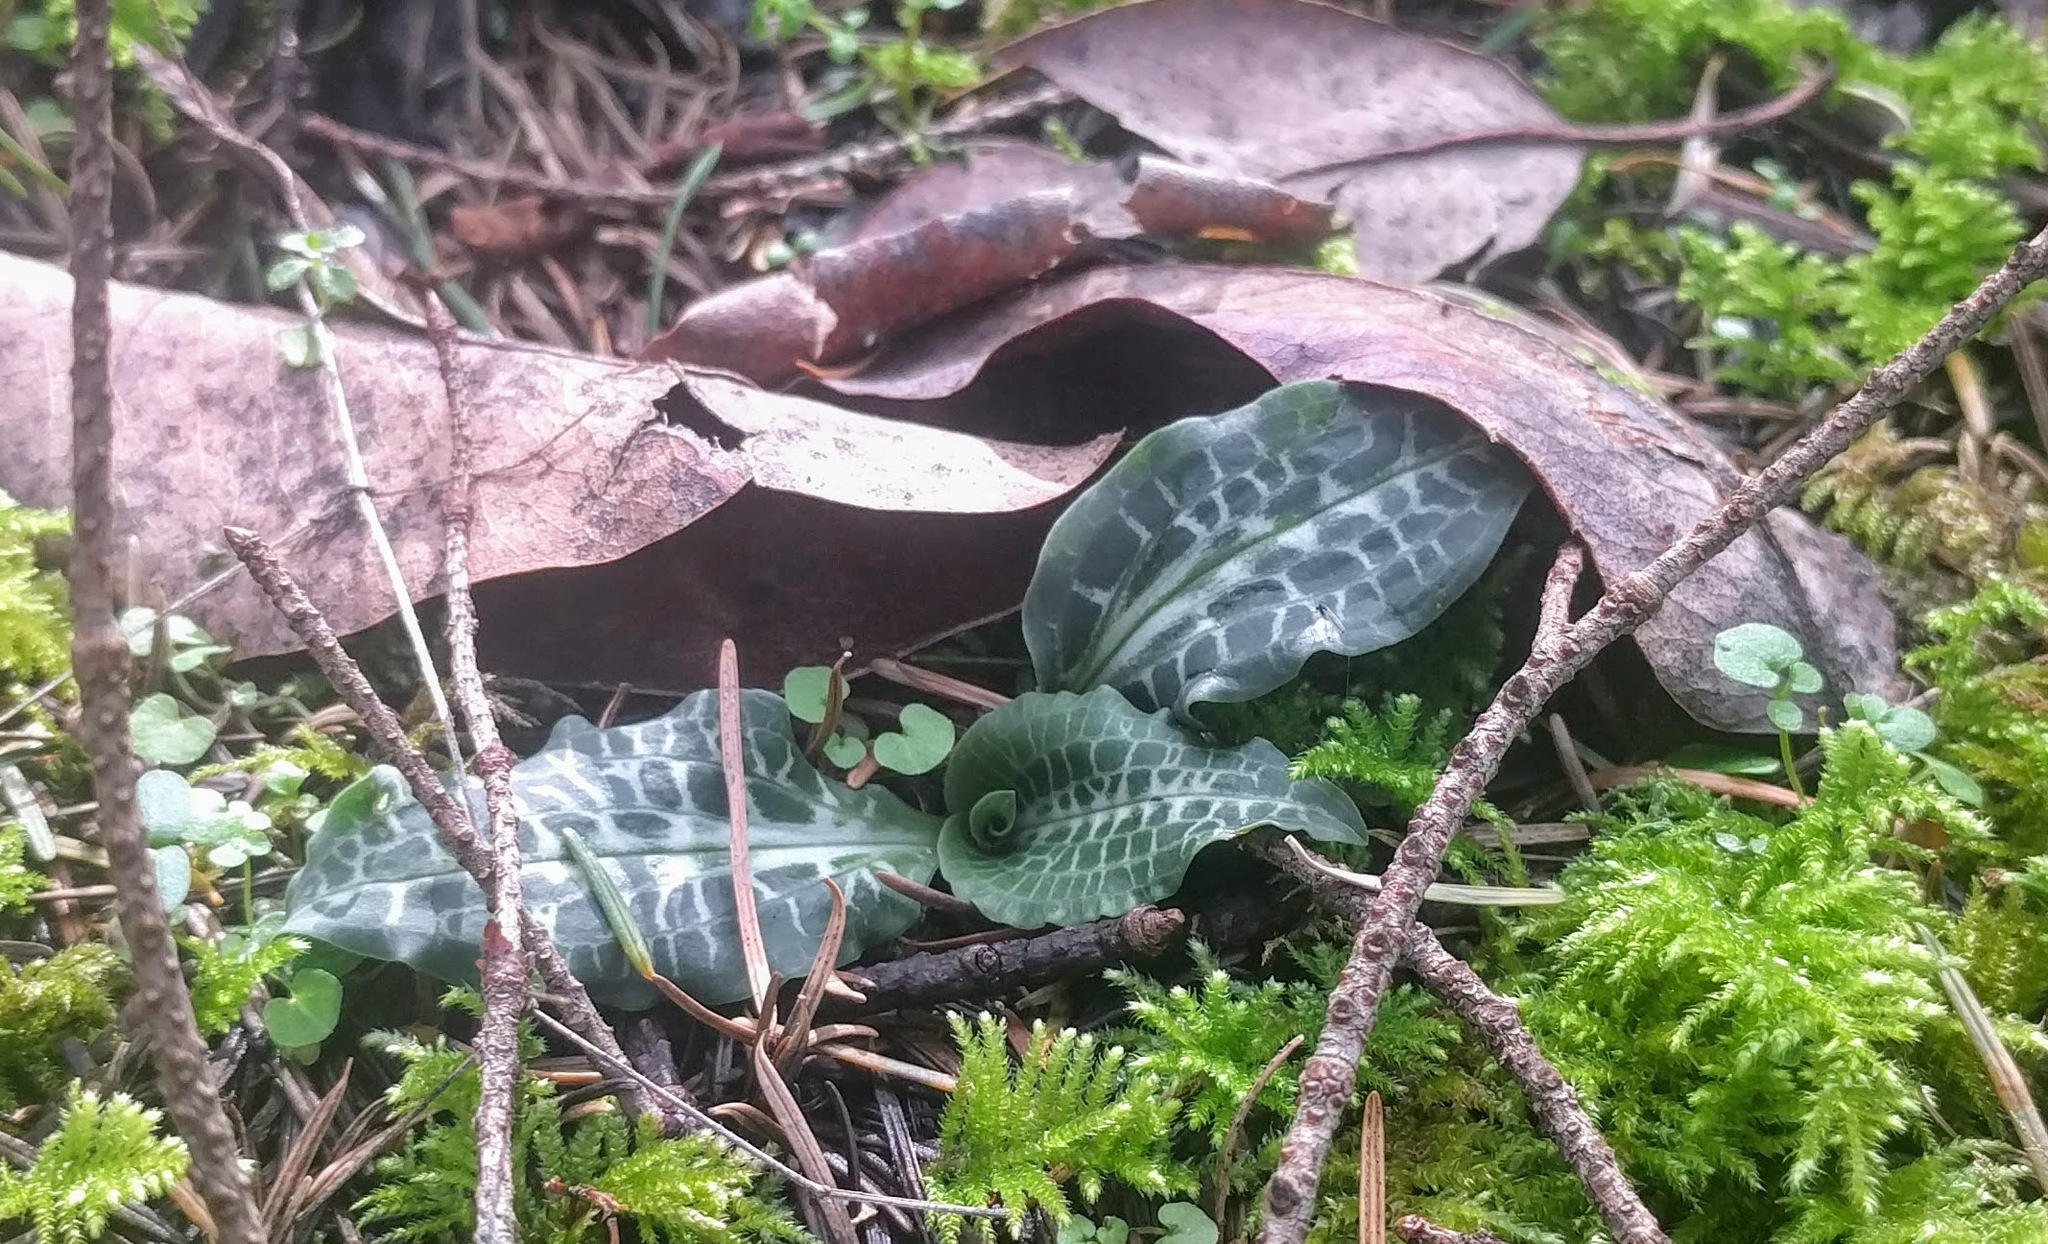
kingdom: Plantae
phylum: Tracheophyta
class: Liliopsida
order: Asparagales
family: Orchidaceae
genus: Goodyera
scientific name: Goodyera oblongifolia
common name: Giant rattlesnake-plantain
